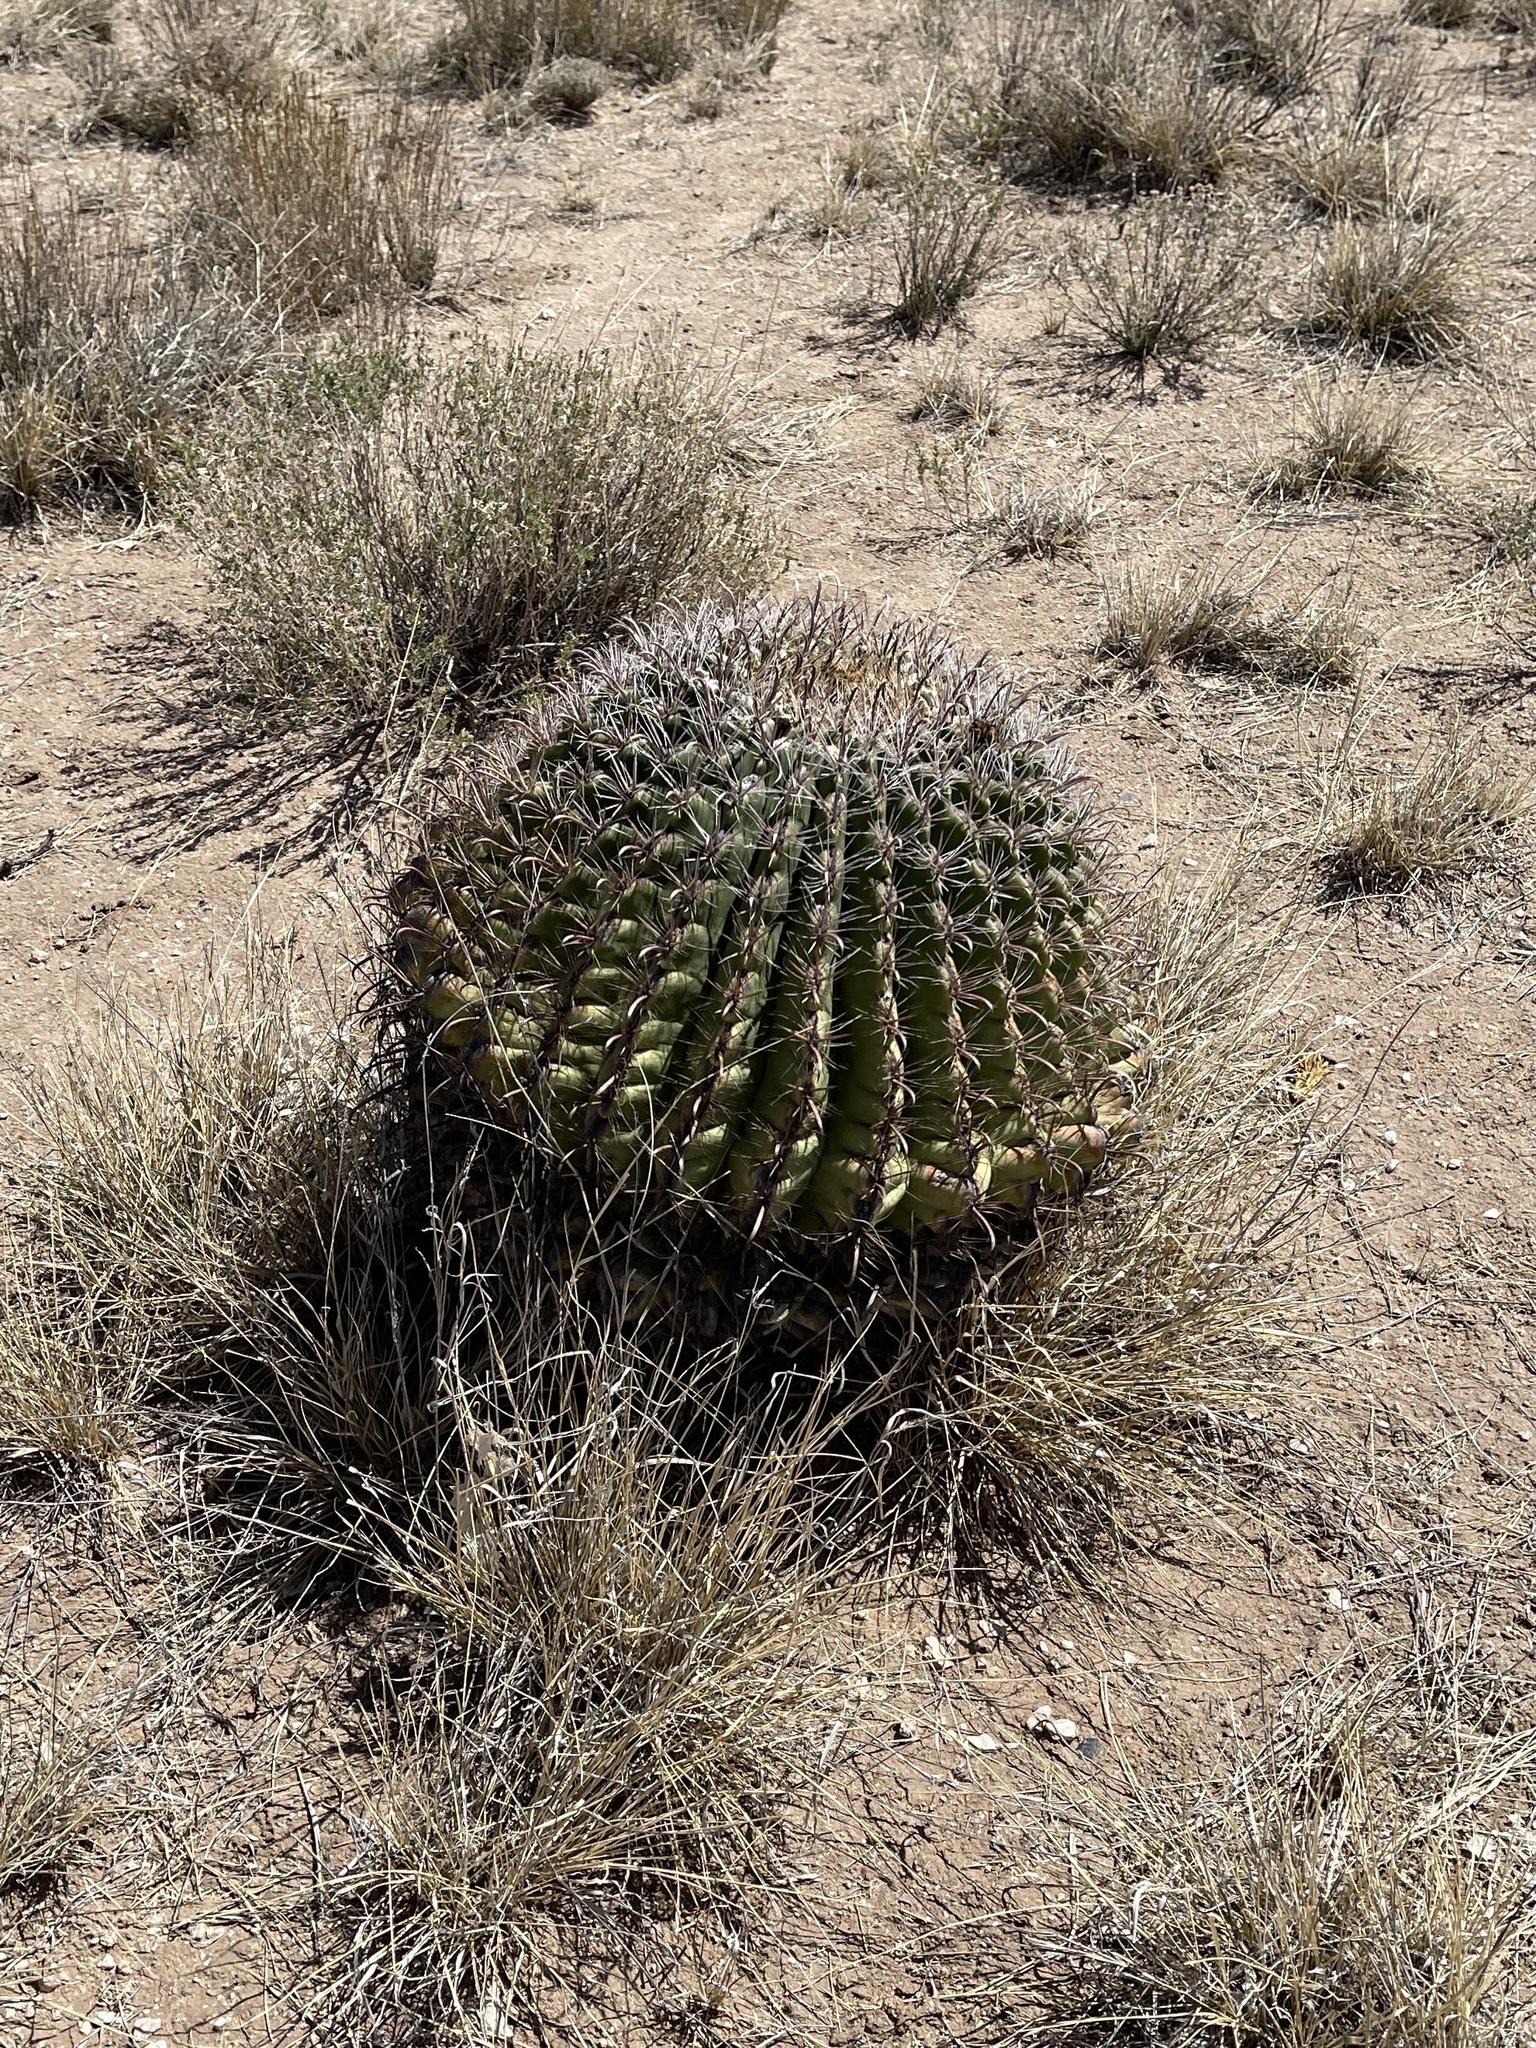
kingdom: Plantae
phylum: Tracheophyta
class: Magnoliopsida
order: Caryophyllales
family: Cactaceae
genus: Ferocactus
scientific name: Ferocactus wislizeni
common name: Candy barrel cactus
